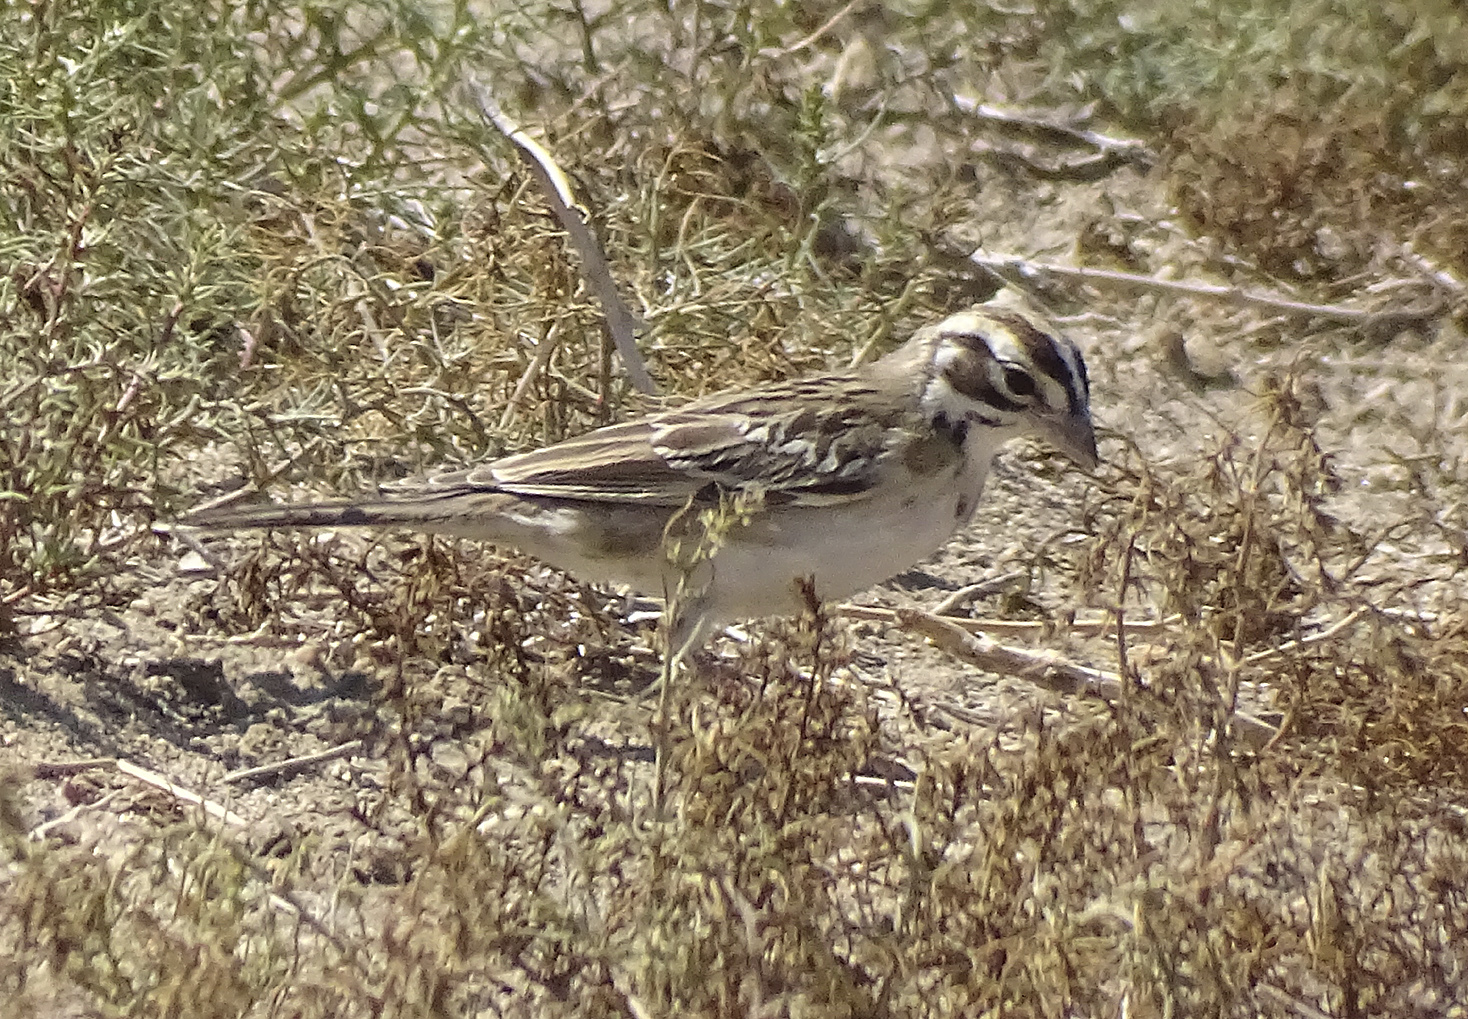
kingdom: Animalia
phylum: Chordata
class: Aves
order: Passeriformes
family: Passerellidae
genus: Chondestes
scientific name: Chondestes grammacus
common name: Lark sparrow
